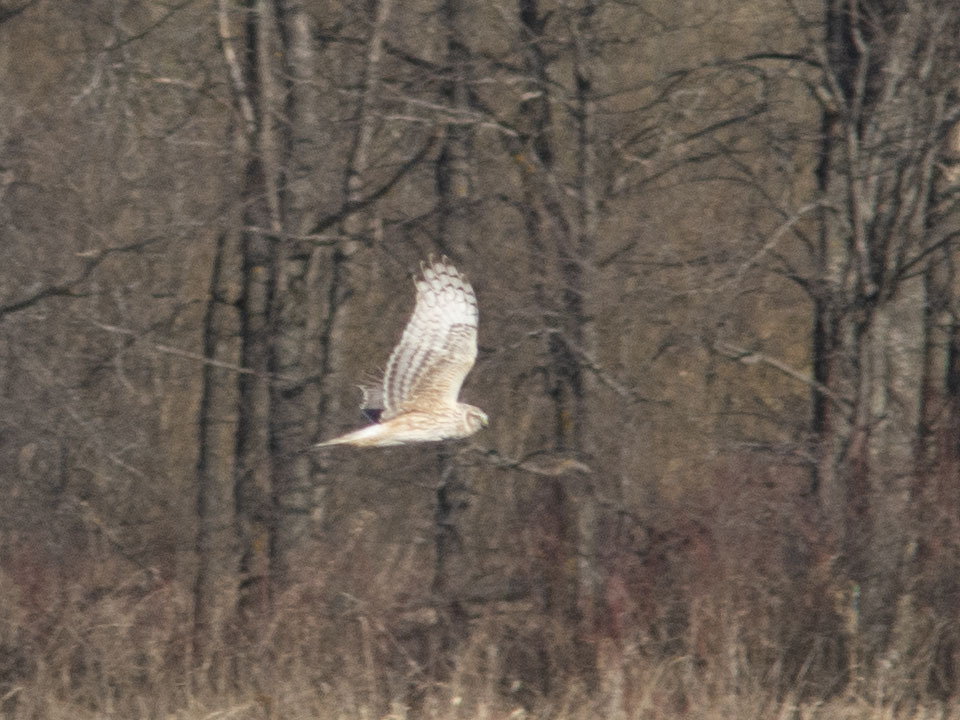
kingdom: Animalia
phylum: Chordata
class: Aves
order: Accipitriformes
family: Accipitridae
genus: Circus
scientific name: Circus cyaneus
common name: Hen harrier
